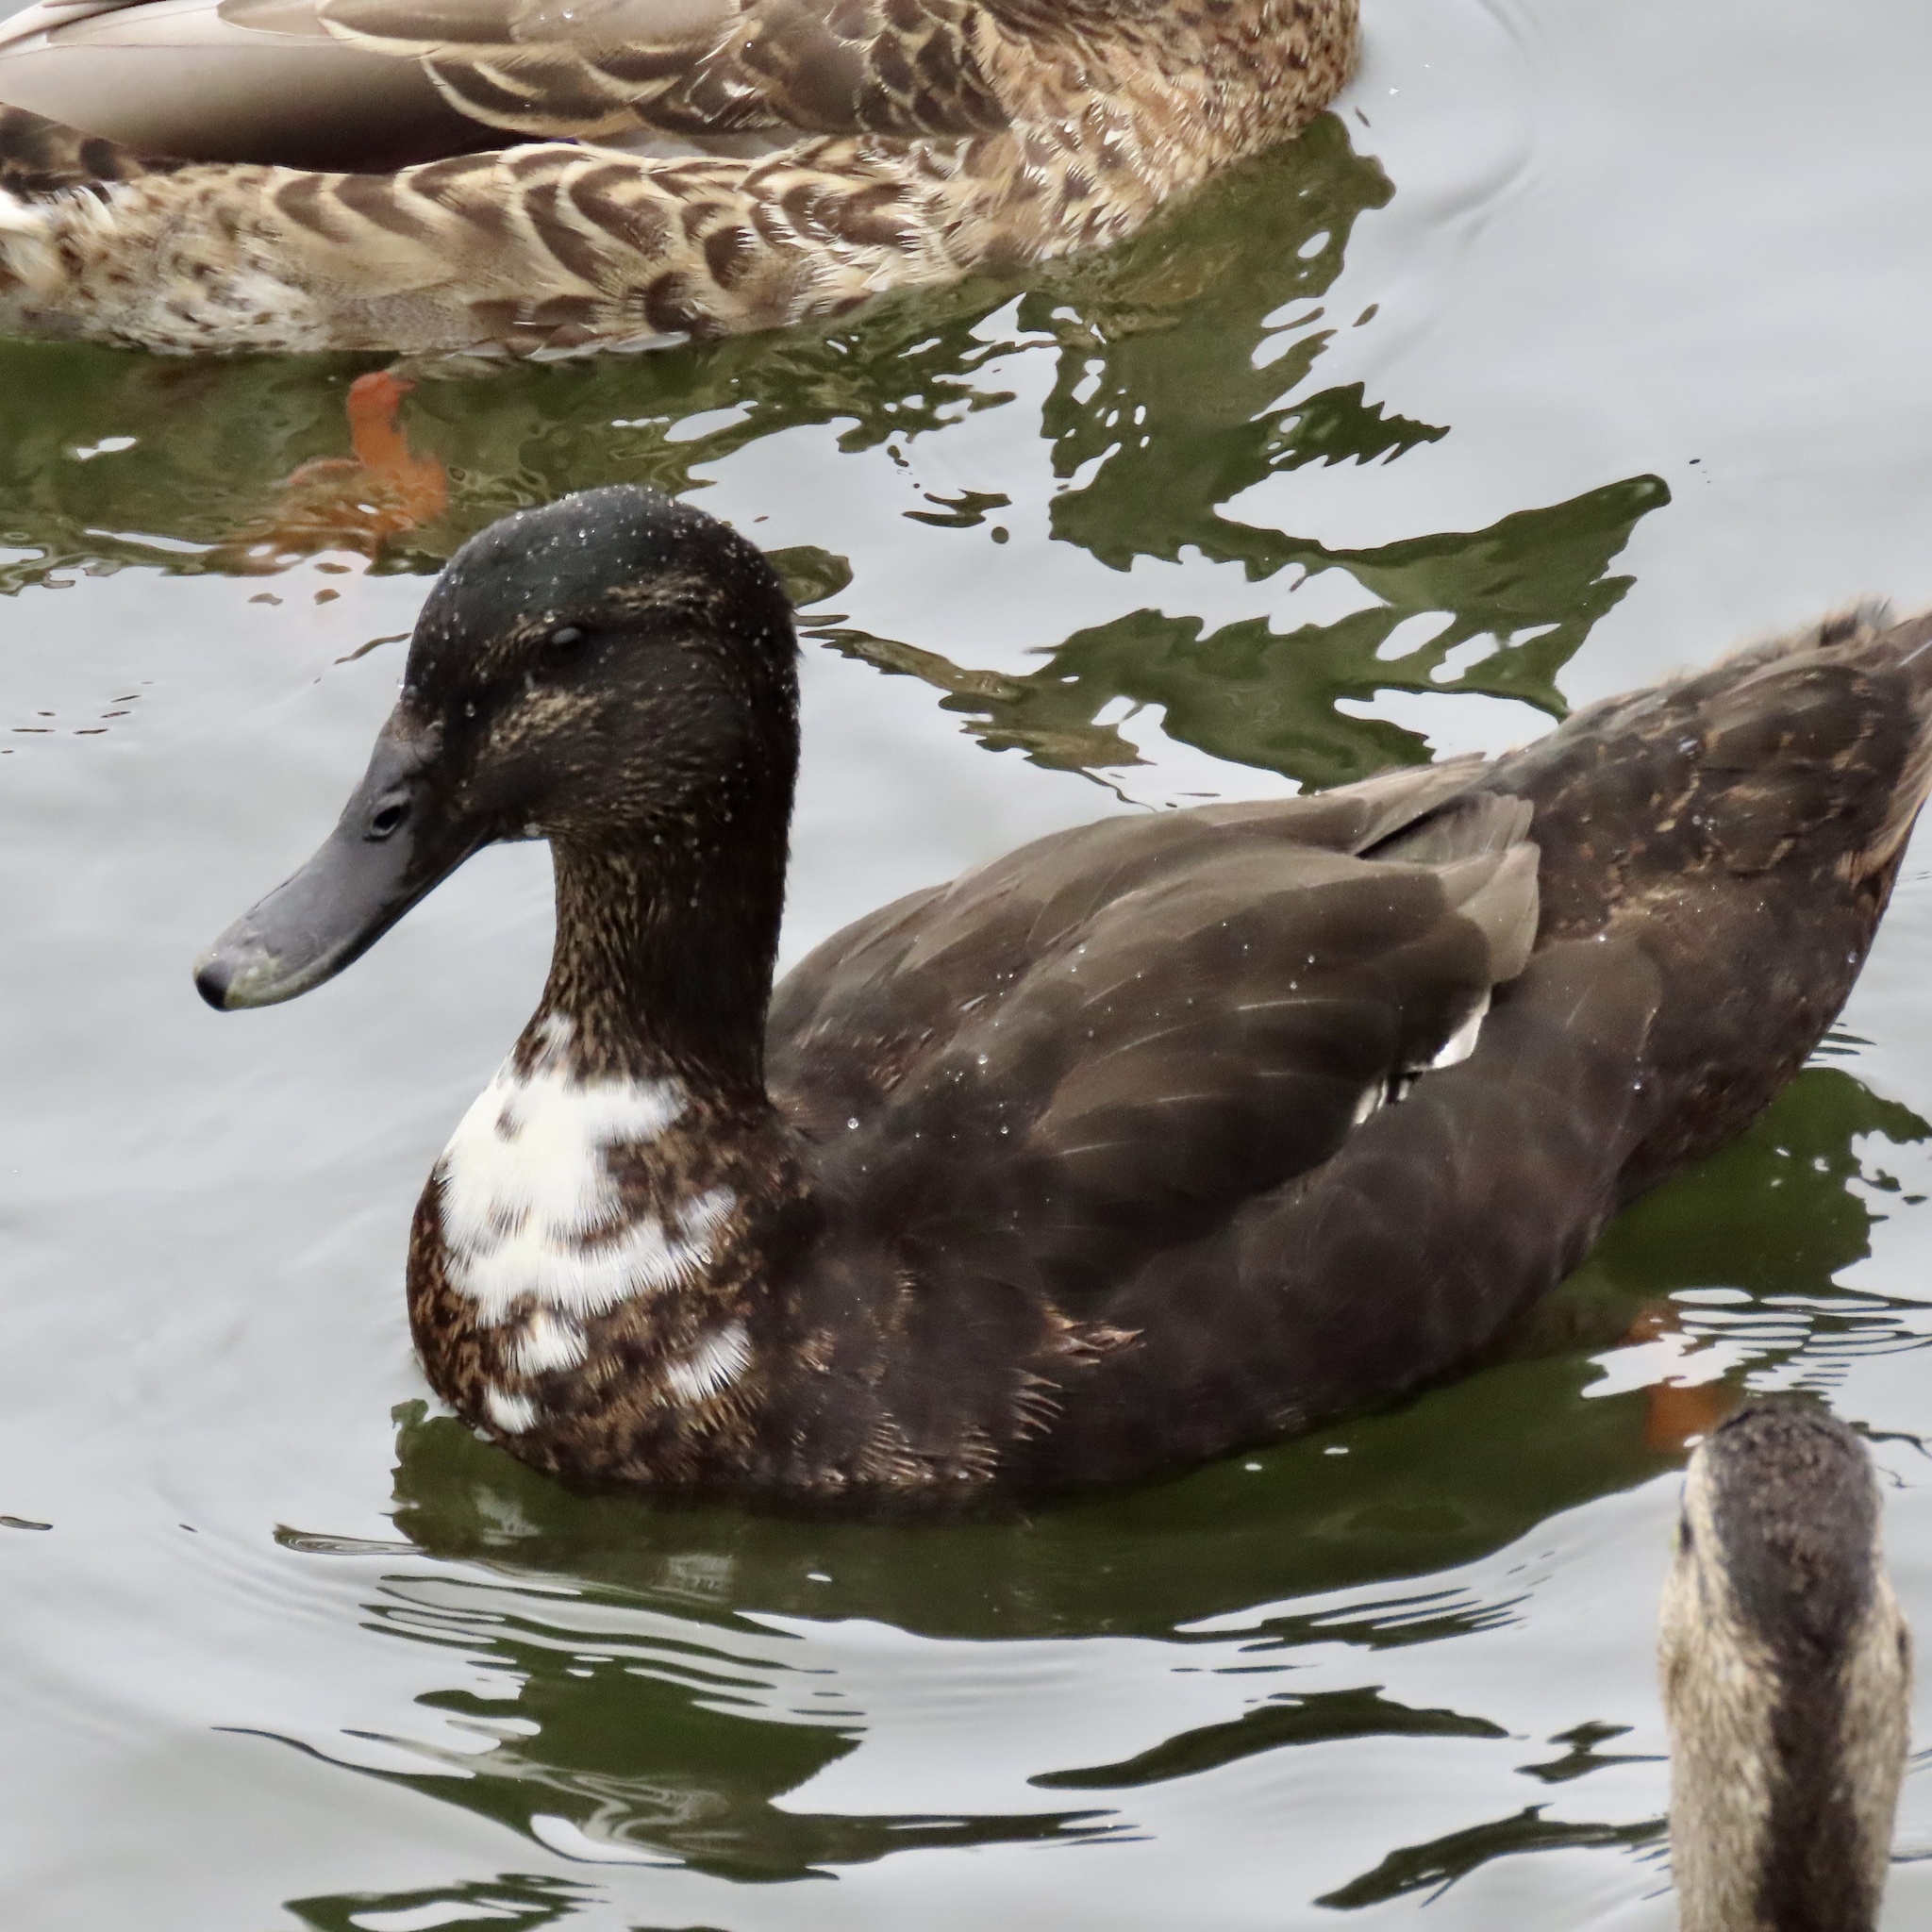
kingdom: Animalia
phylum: Chordata
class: Aves
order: Anseriformes
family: Anatidae
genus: Anas
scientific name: Anas platyrhynchos
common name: Mallard
